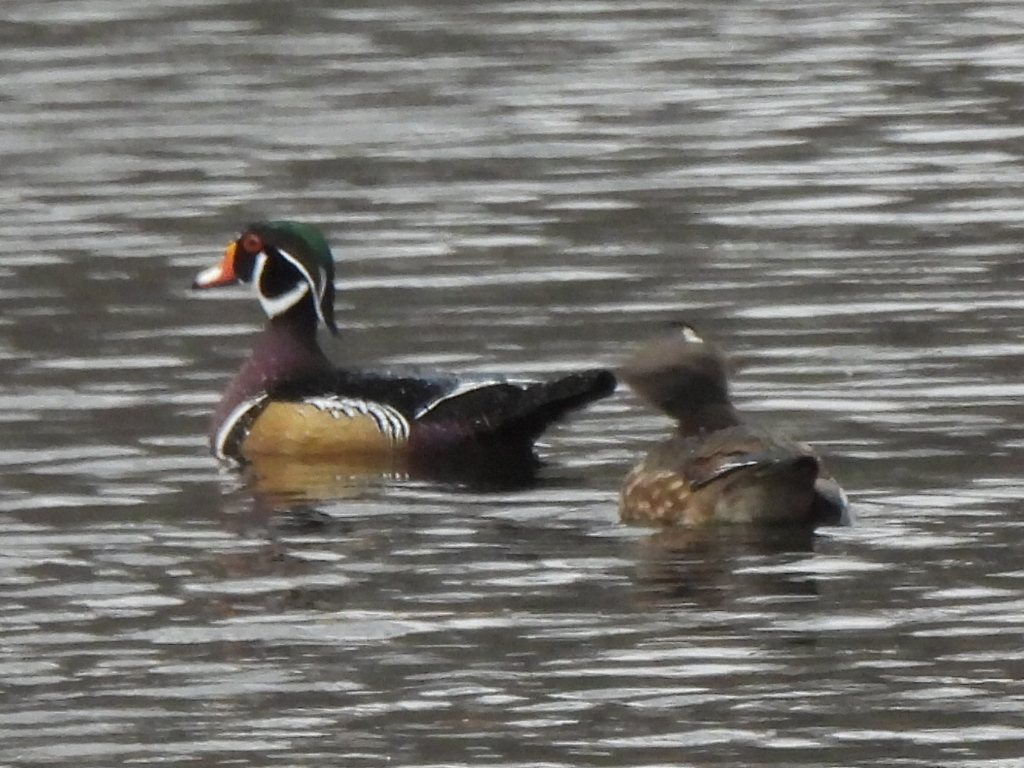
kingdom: Animalia
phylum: Chordata
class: Aves
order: Anseriformes
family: Anatidae
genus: Aix
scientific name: Aix sponsa
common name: Wood duck
